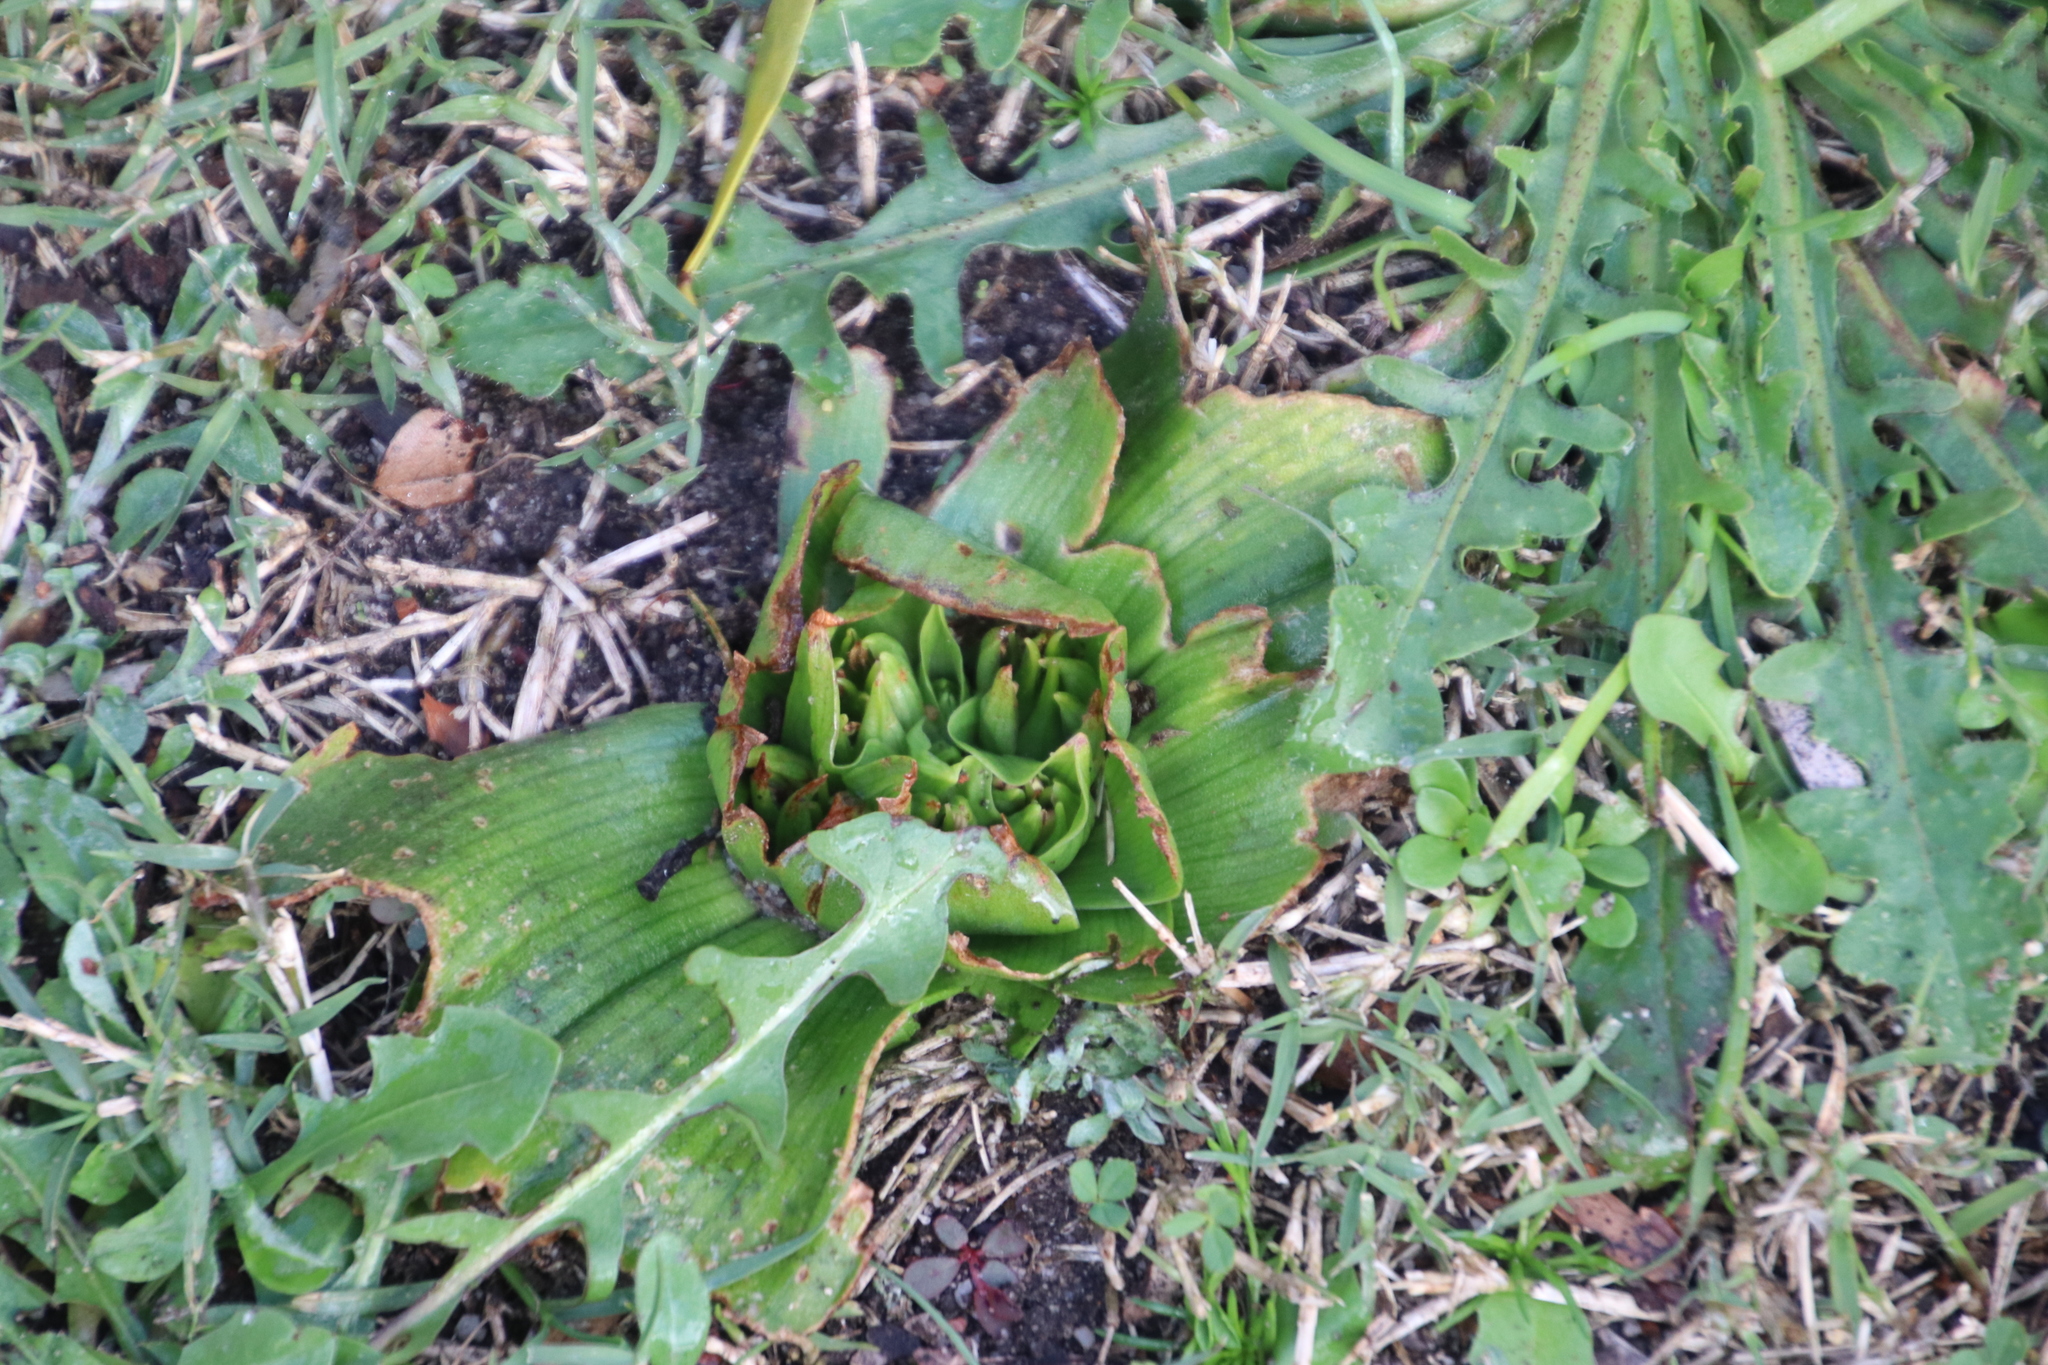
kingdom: Plantae
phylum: Tracheophyta
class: Liliopsida
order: Liliales
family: Colchicaceae
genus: Colchicum
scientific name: Colchicum eucomoides
